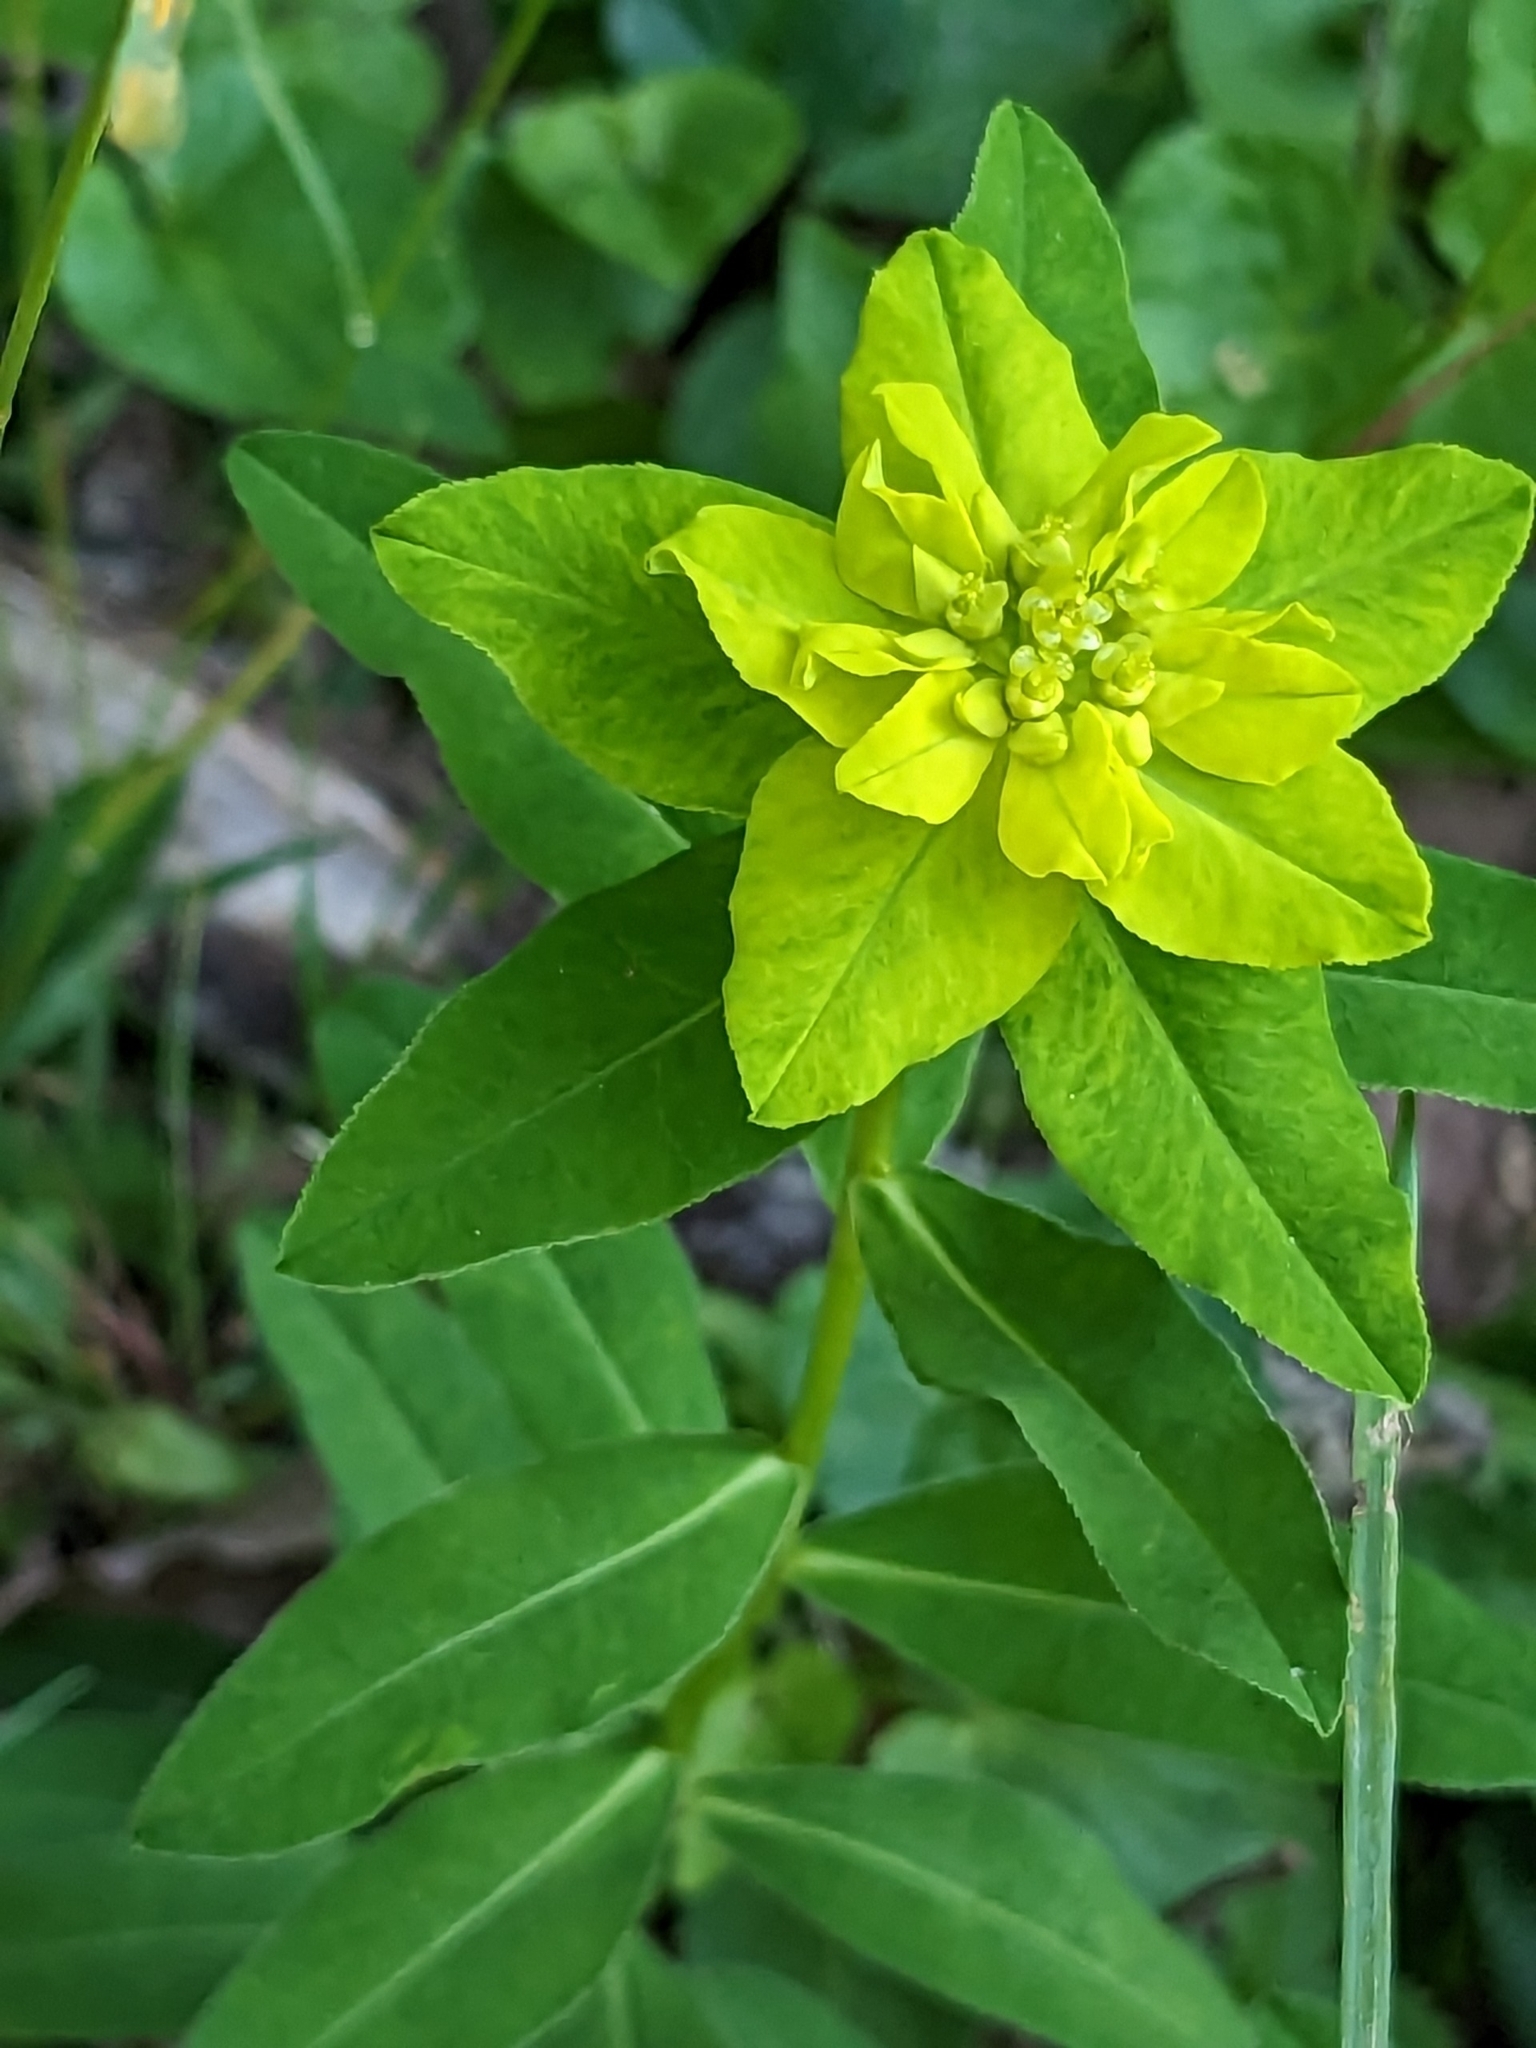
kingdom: Plantae
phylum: Tracheophyta
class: Magnoliopsida
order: Malpighiales
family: Euphorbiaceae
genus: Euphorbia
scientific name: Euphorbia hyberna
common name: Irish spurge
